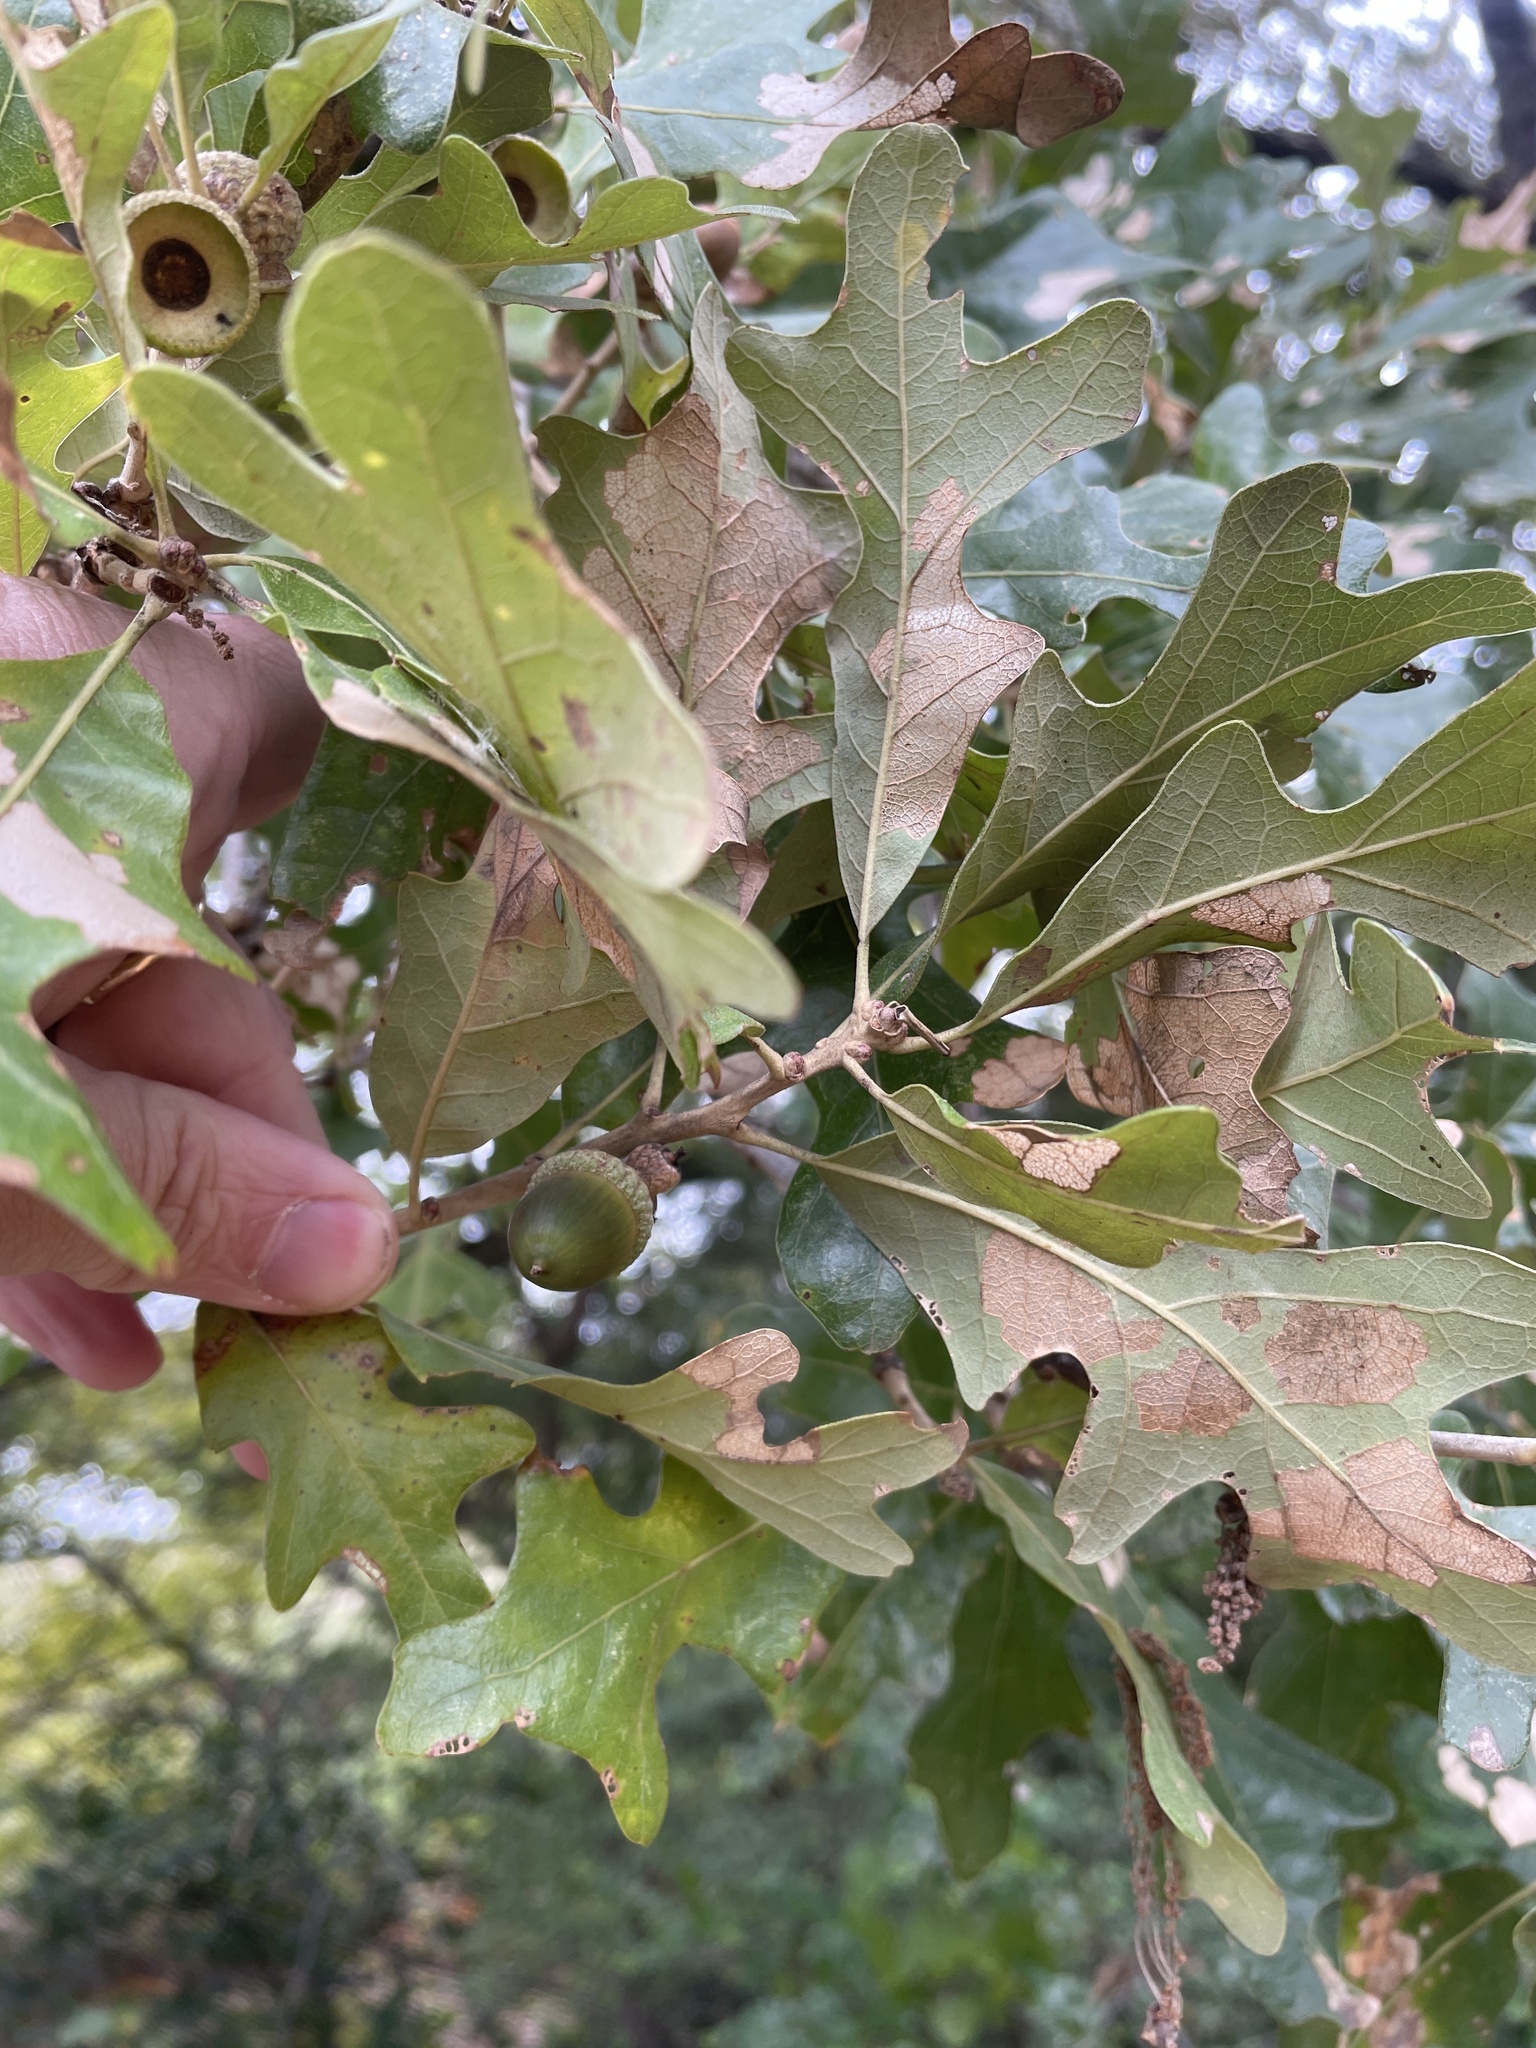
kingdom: Plantae
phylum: Tracheophyta
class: Magnoliopsida
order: Fagales
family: Fagaceae
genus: Quercus
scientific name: Quercus stellata
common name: Post oak
